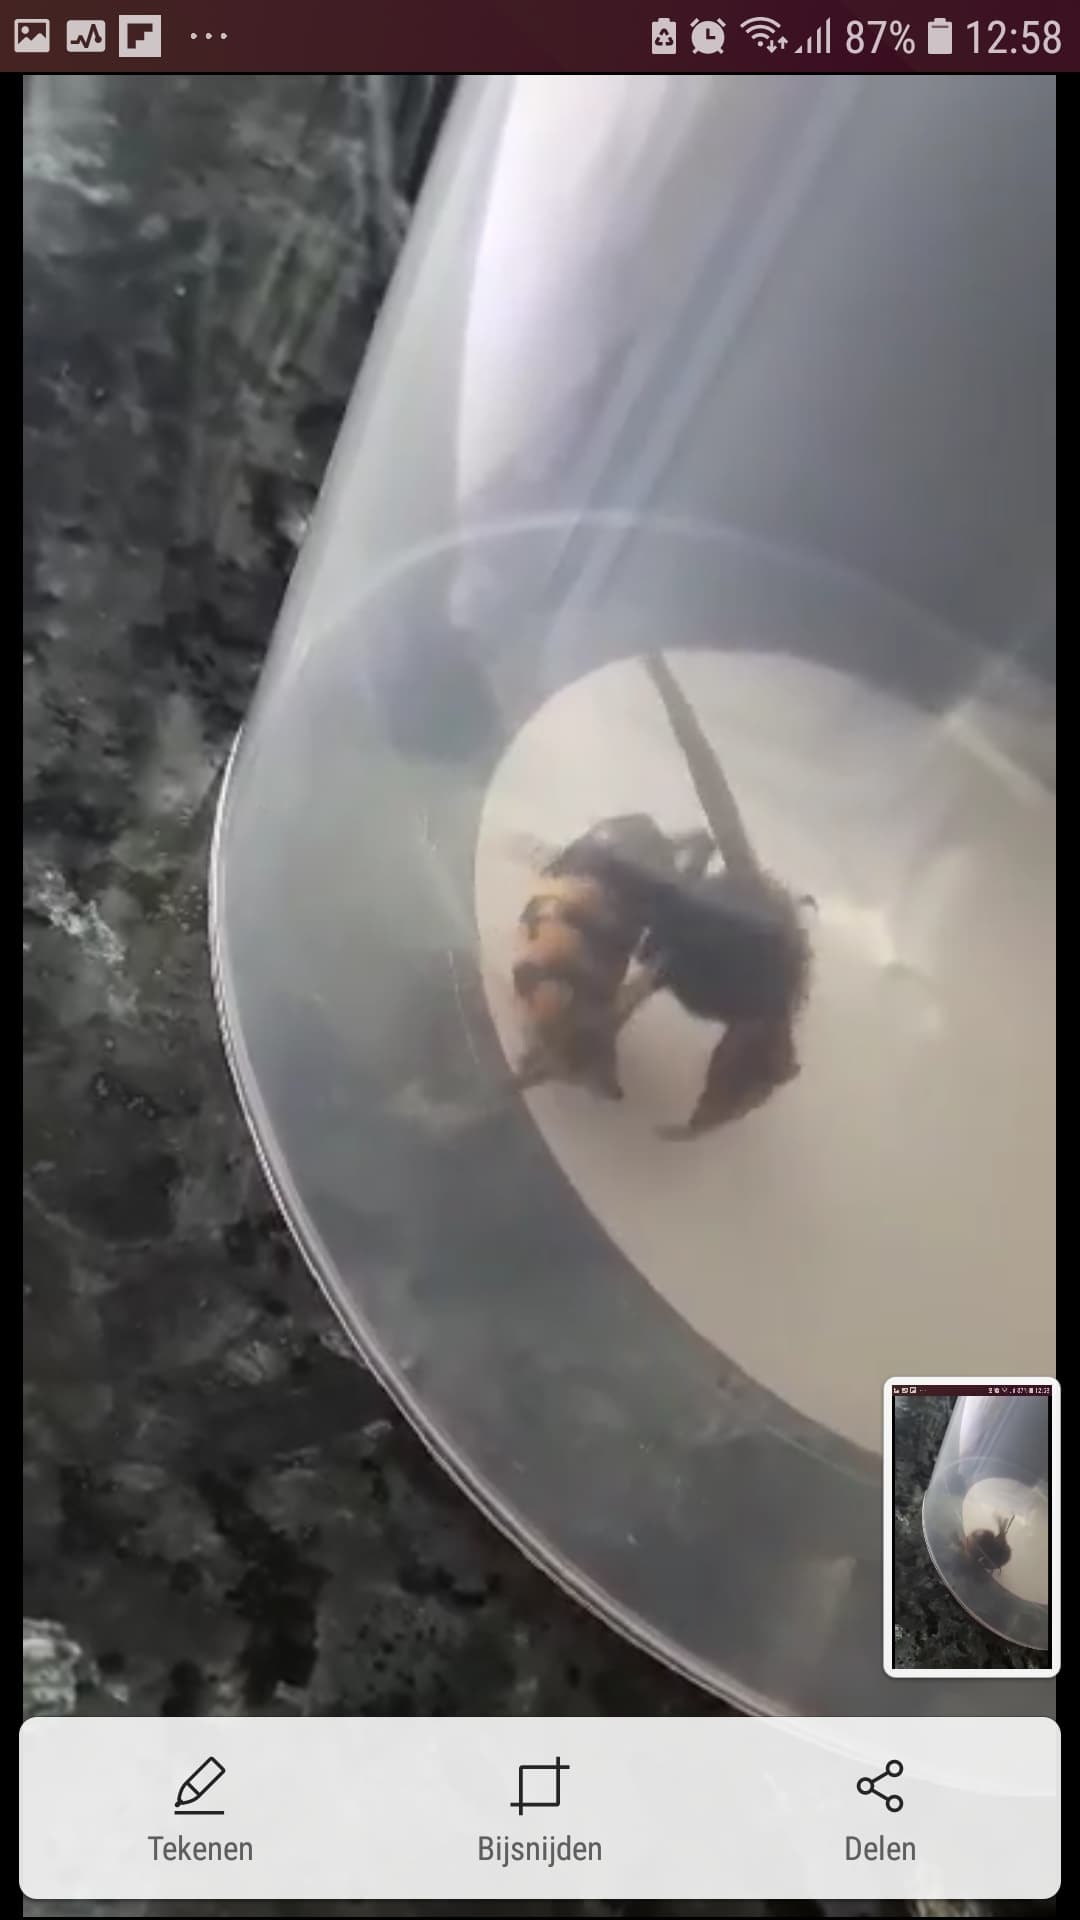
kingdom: Animalia
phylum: Arthropoda
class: Insecta
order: Hymenoptera
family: Vespidae
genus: Vespa
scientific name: Vespa crabro
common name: Hornet
